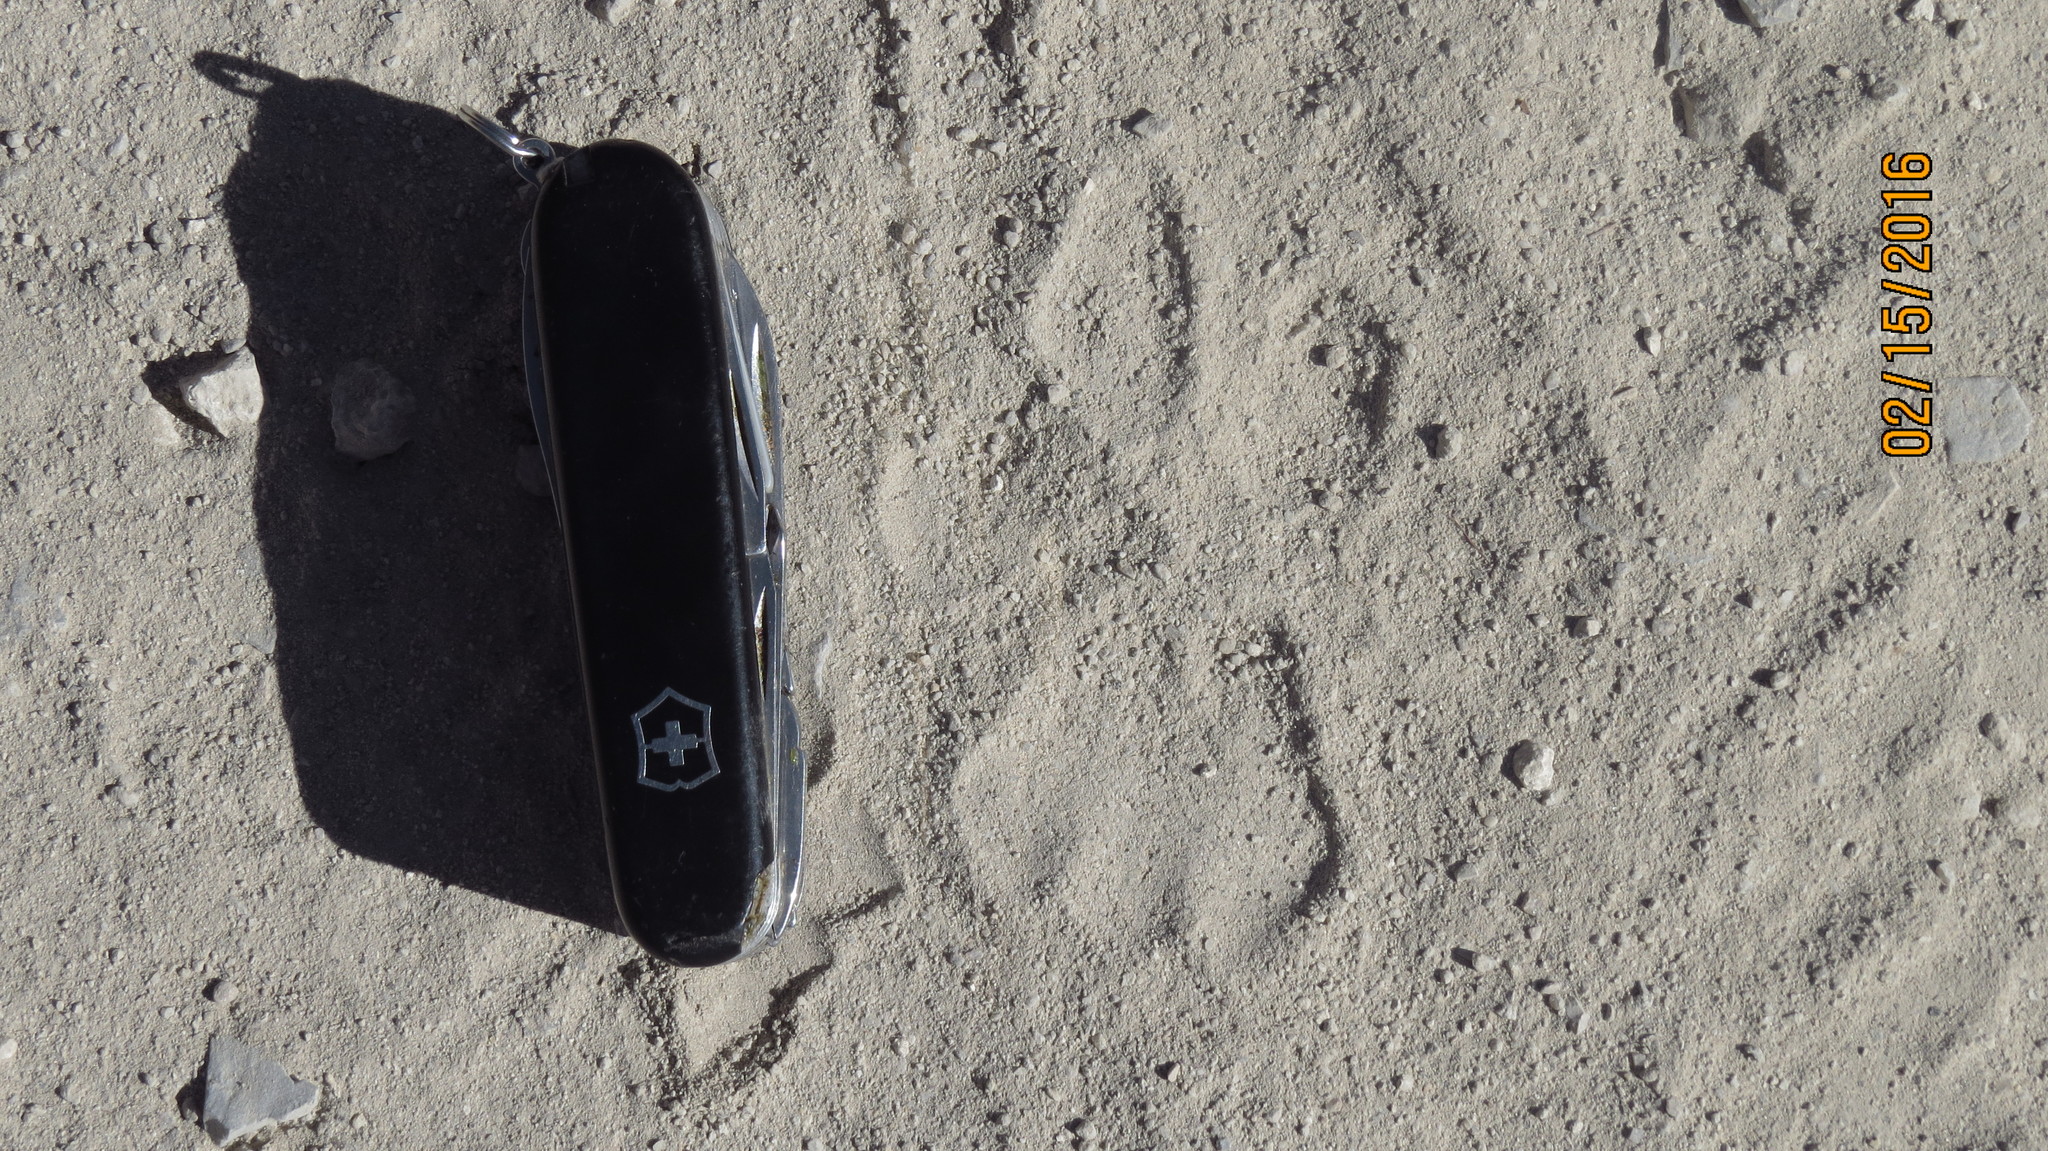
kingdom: Animalia
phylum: Chordata
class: Mammalia
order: Carnivora
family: Felidae
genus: Puma
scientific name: Puma concolor
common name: Puma
